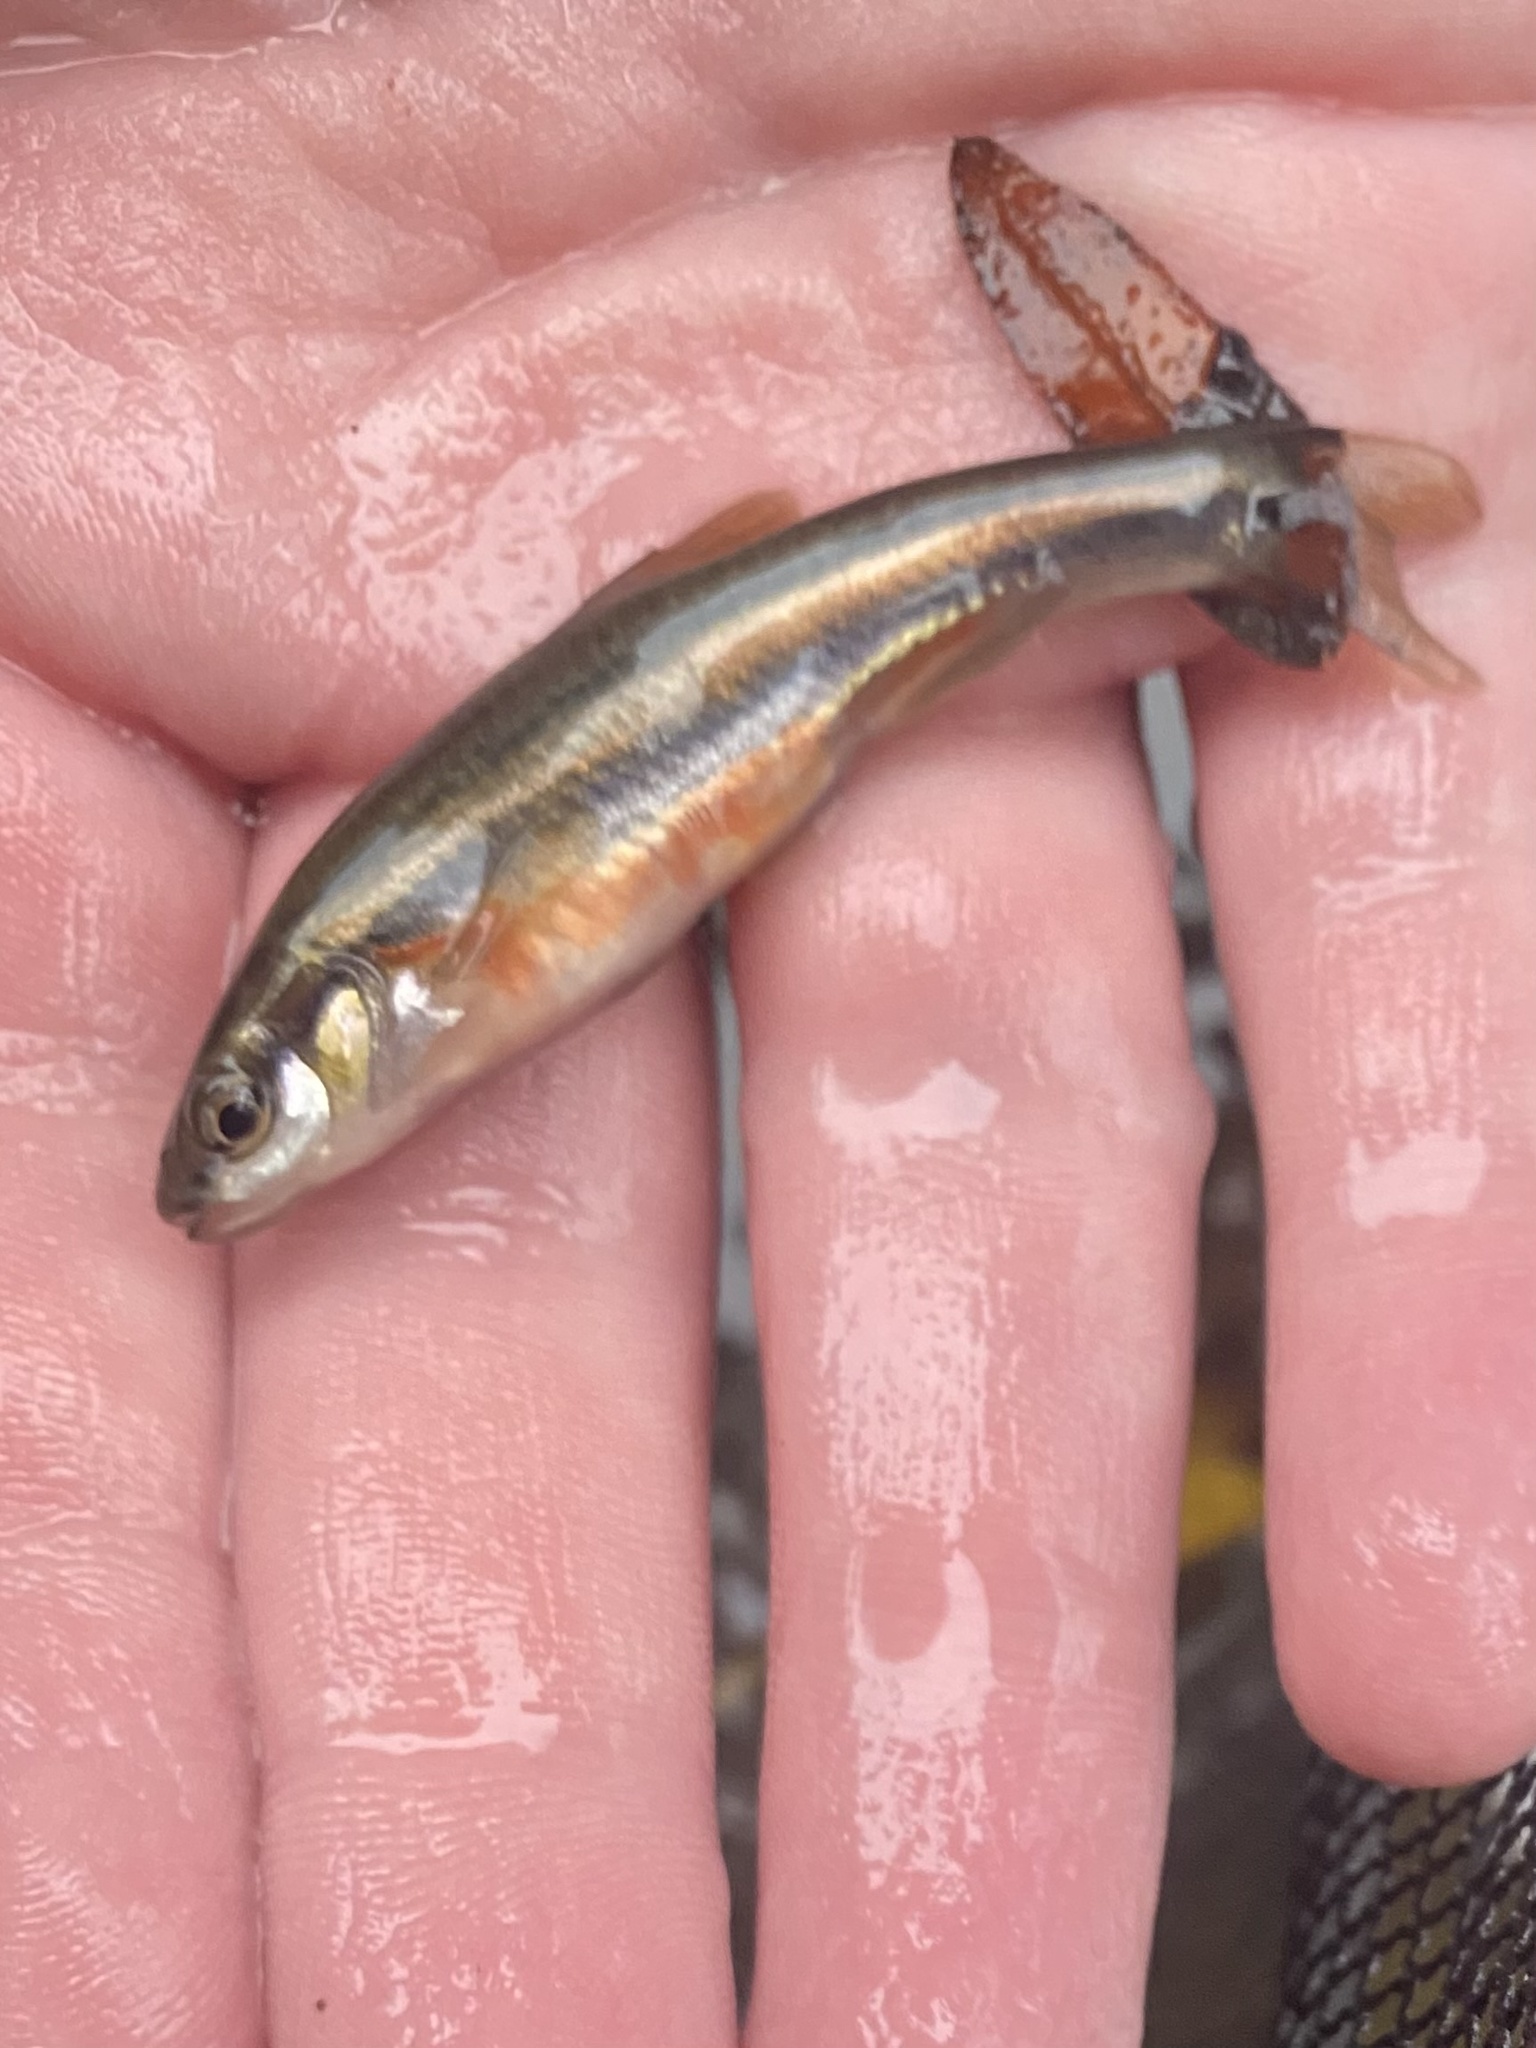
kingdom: Animalia
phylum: Chordata
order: Cypriniformes
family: Cyprinidae
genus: Chrosomus
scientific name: Chrosomus erythrogaster
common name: Southern redbelly dace
